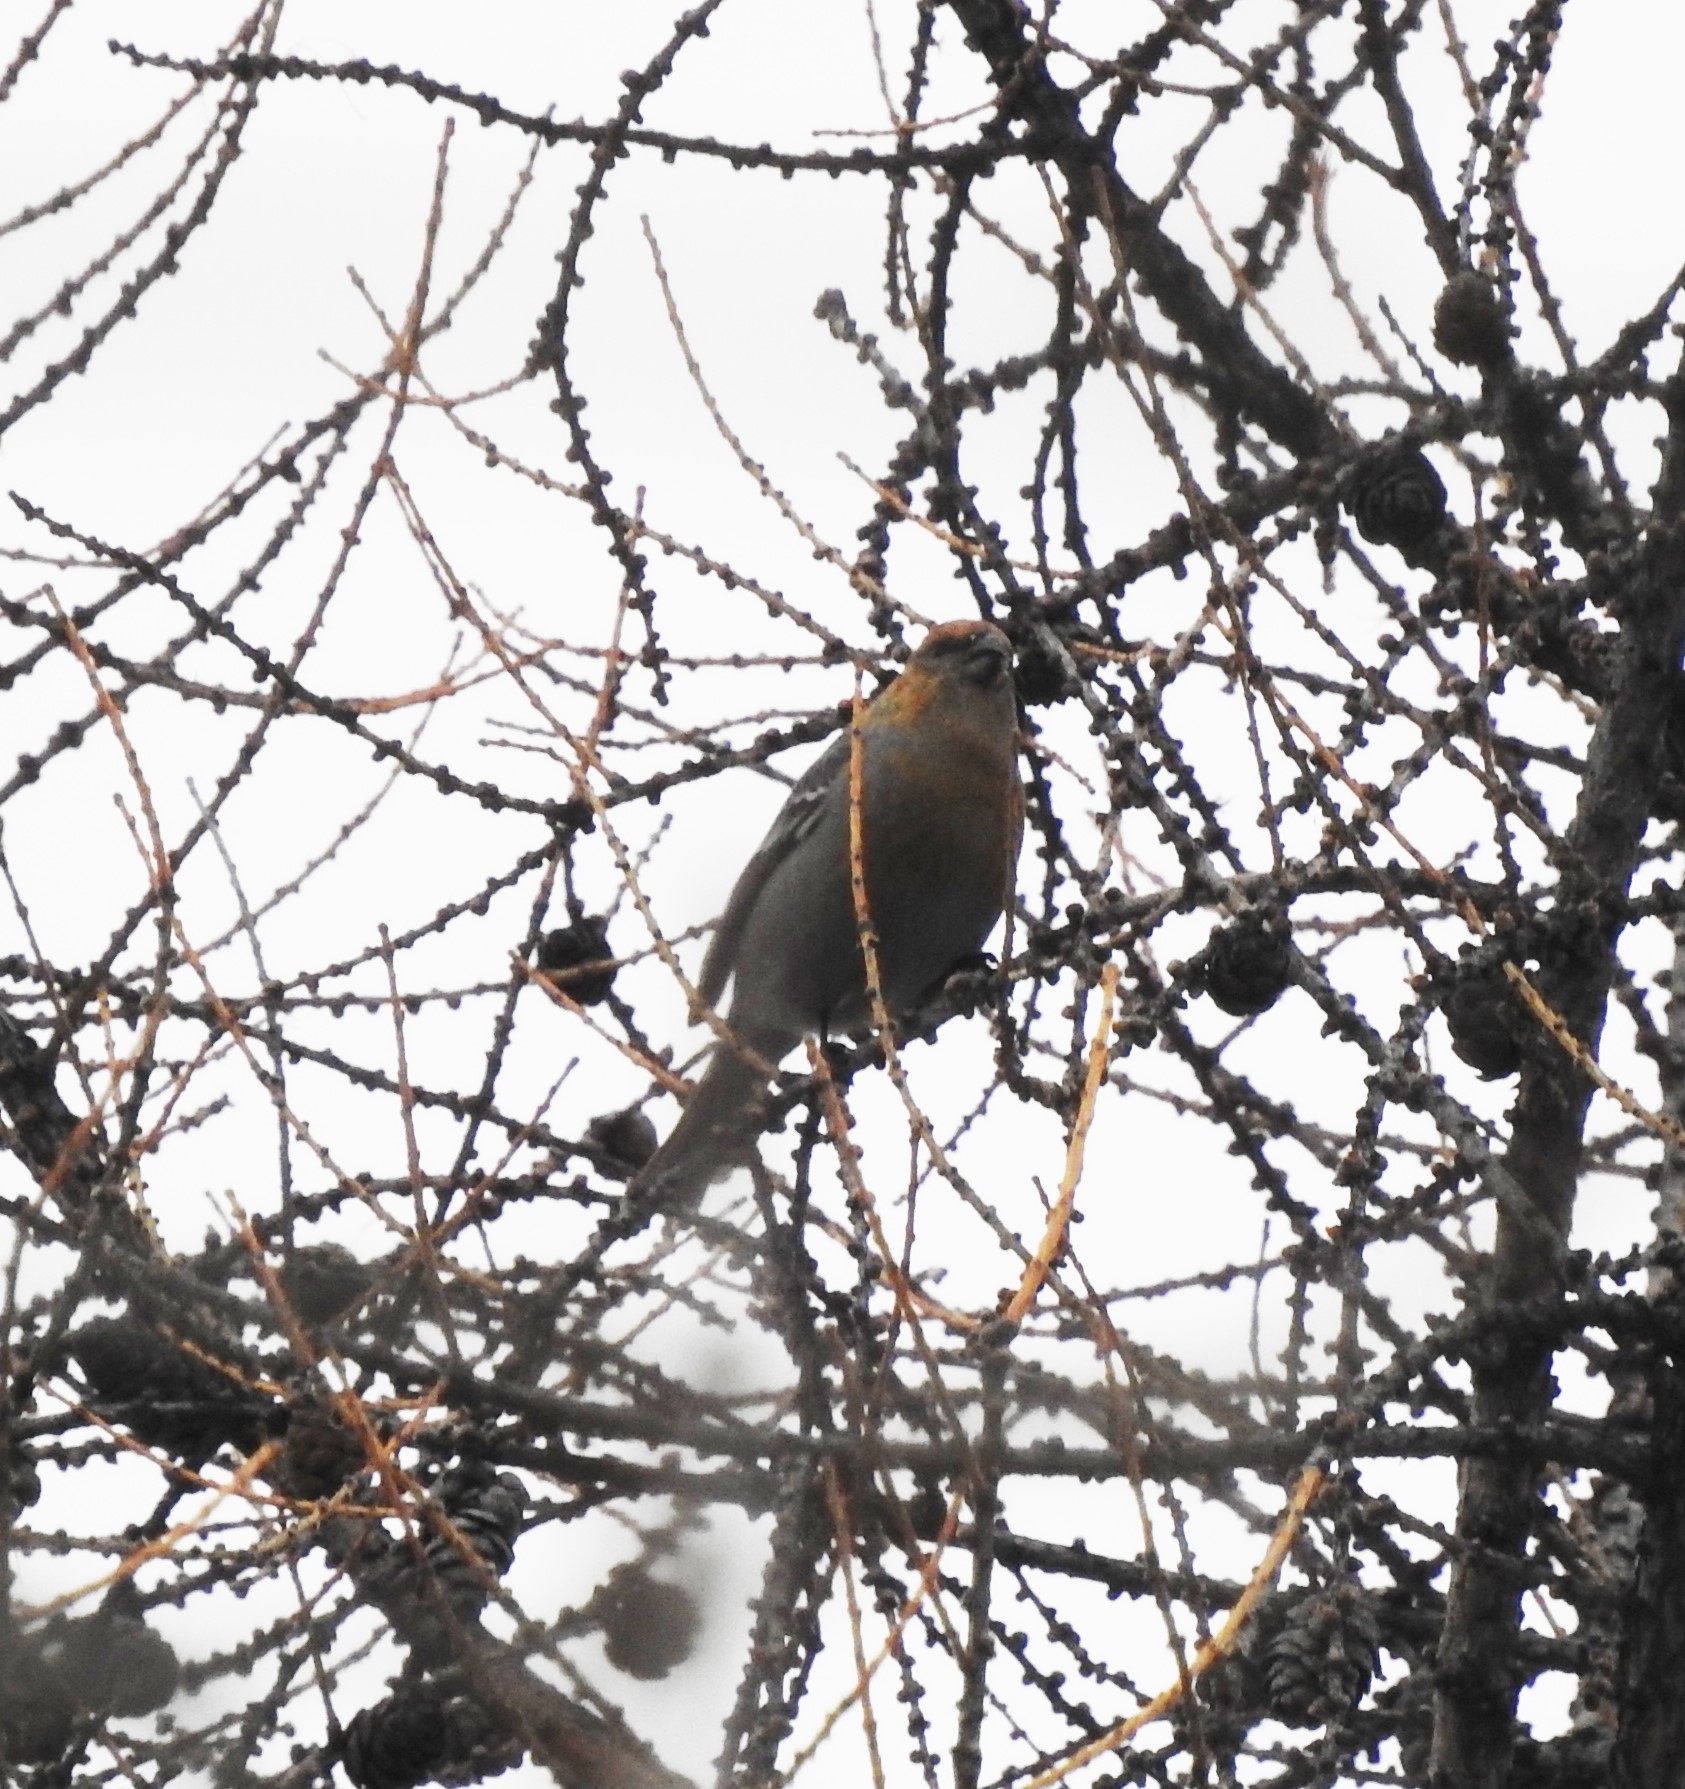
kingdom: Animalia
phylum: Chordata
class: Aves
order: Passeriformes
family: Fringillidae
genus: Pinicola
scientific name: Pinicola enucleator
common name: Pine grosbeak
